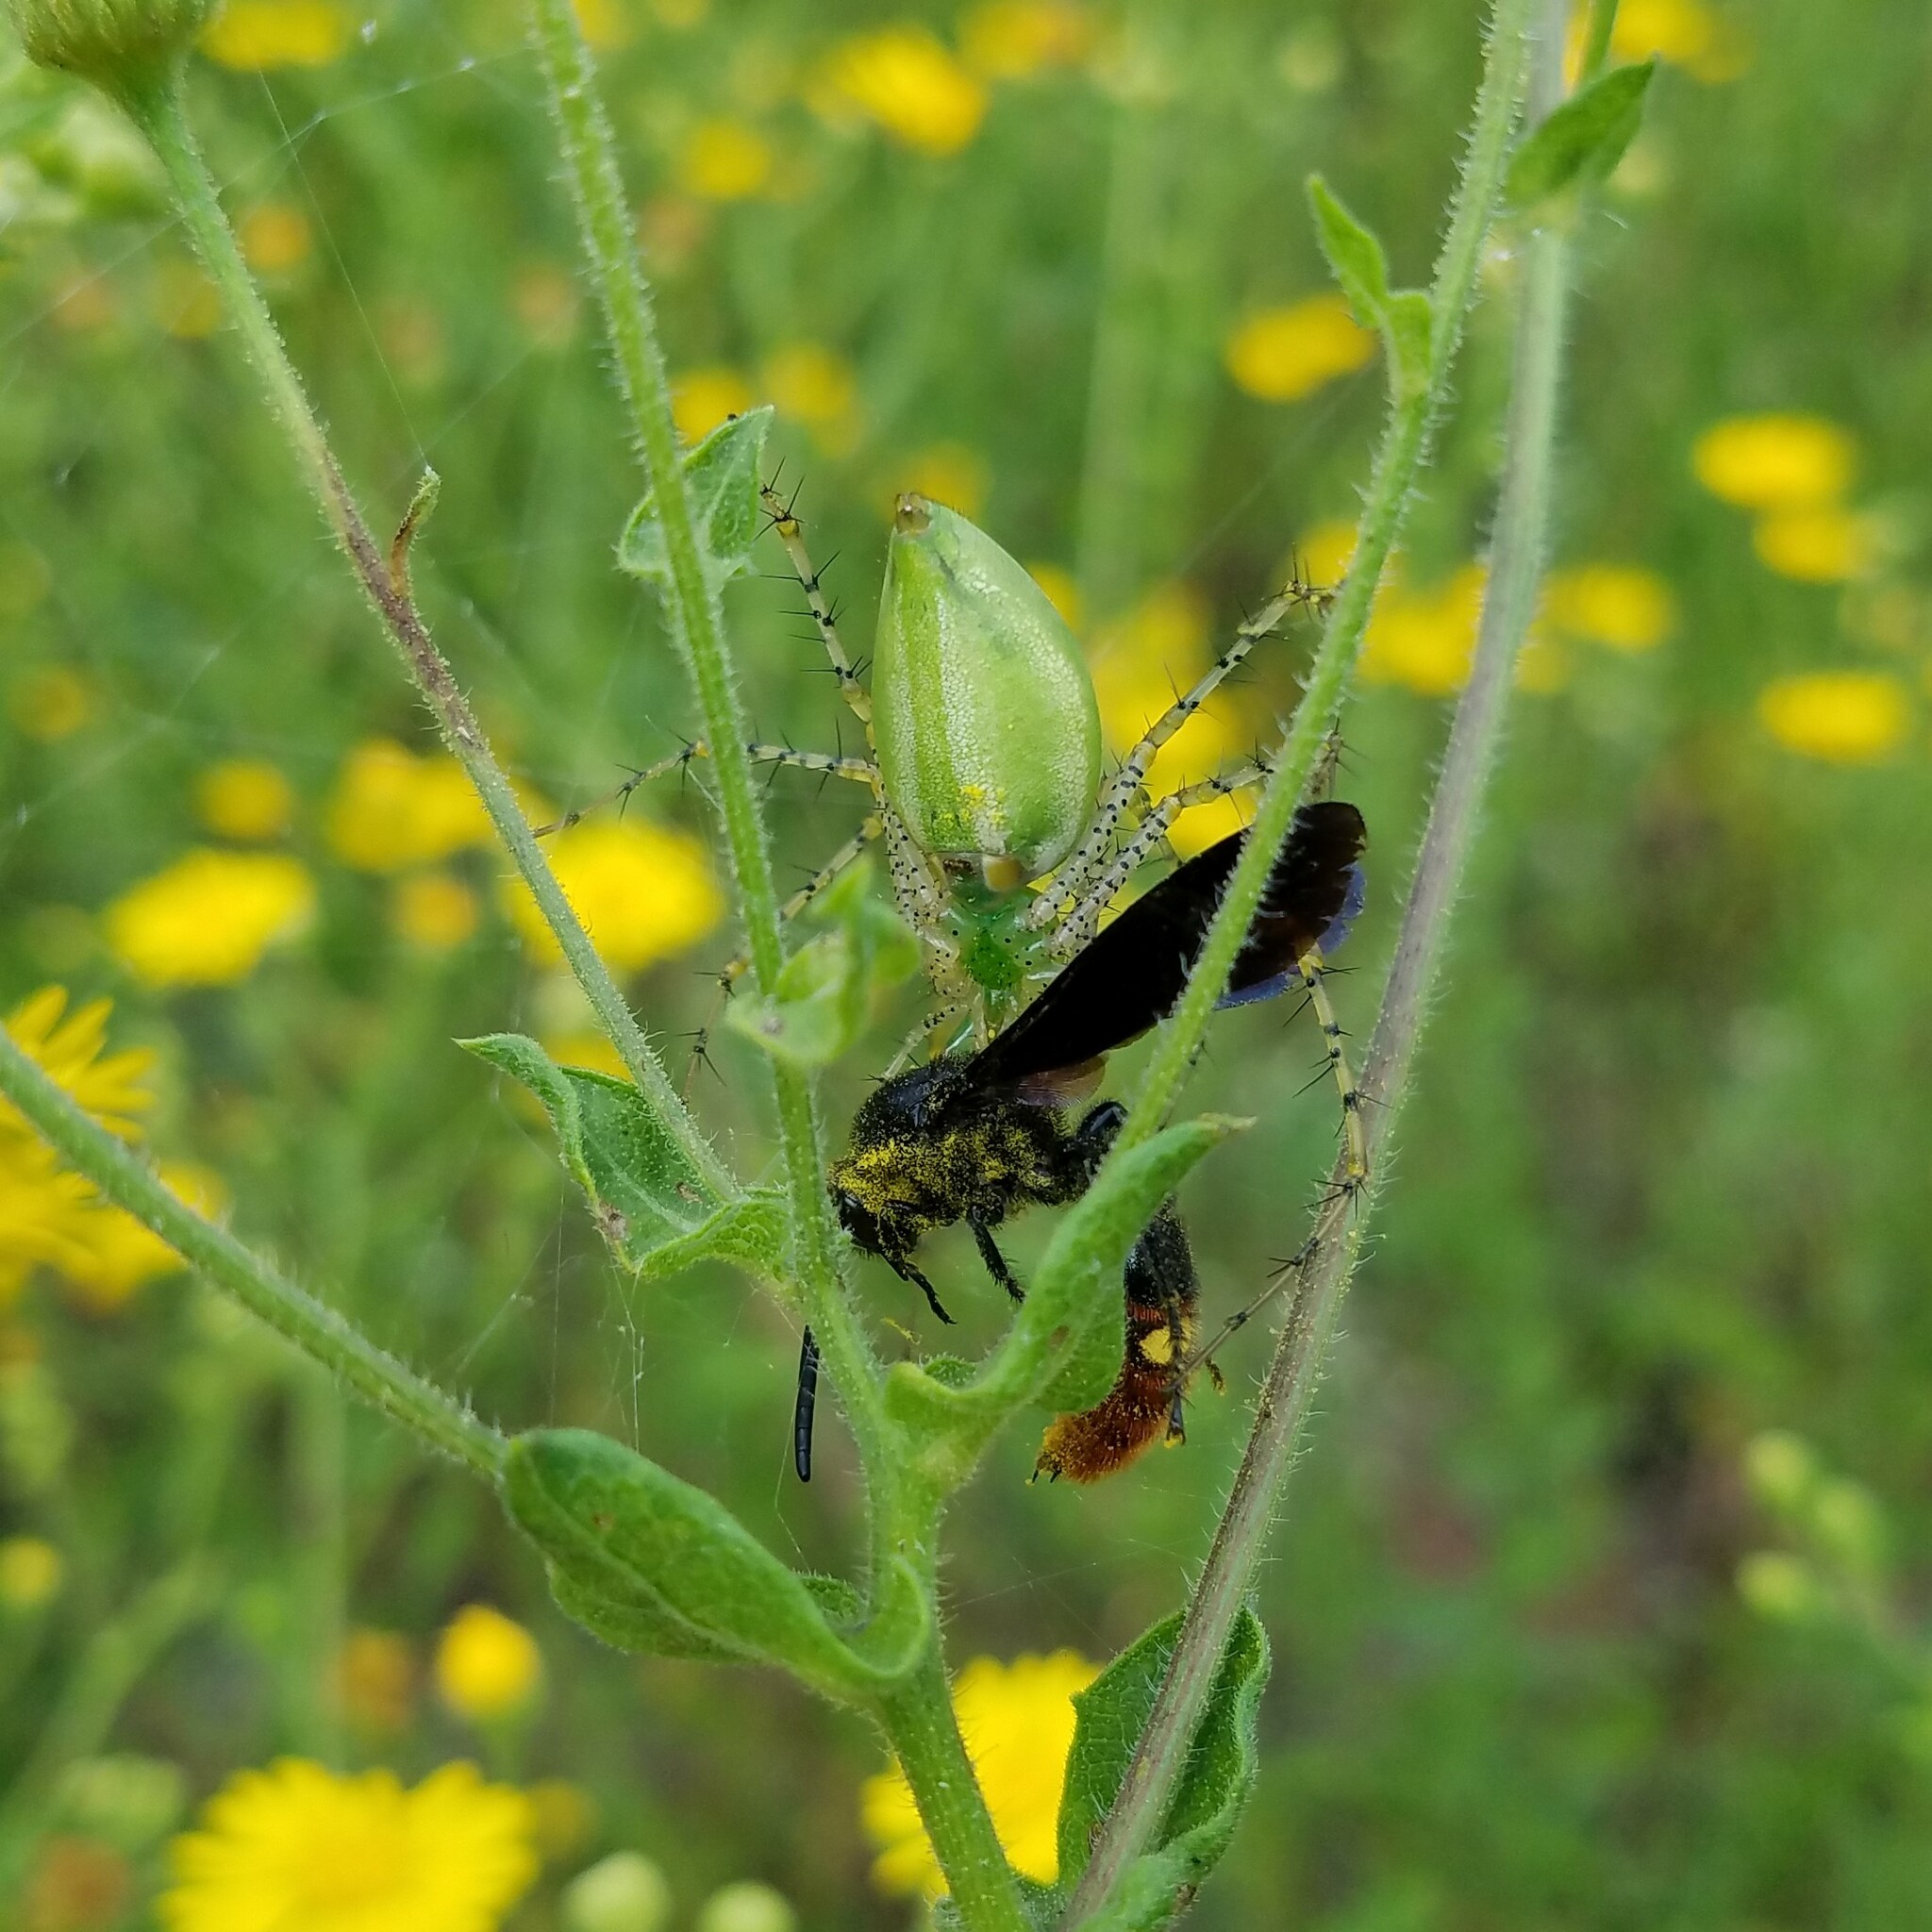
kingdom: Animalia
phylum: Arthropoda
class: Insecta
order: Hymenoptera
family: Scoliidae
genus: Scolia
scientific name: Scolia dubia
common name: Blue-winged scoliid wasp
